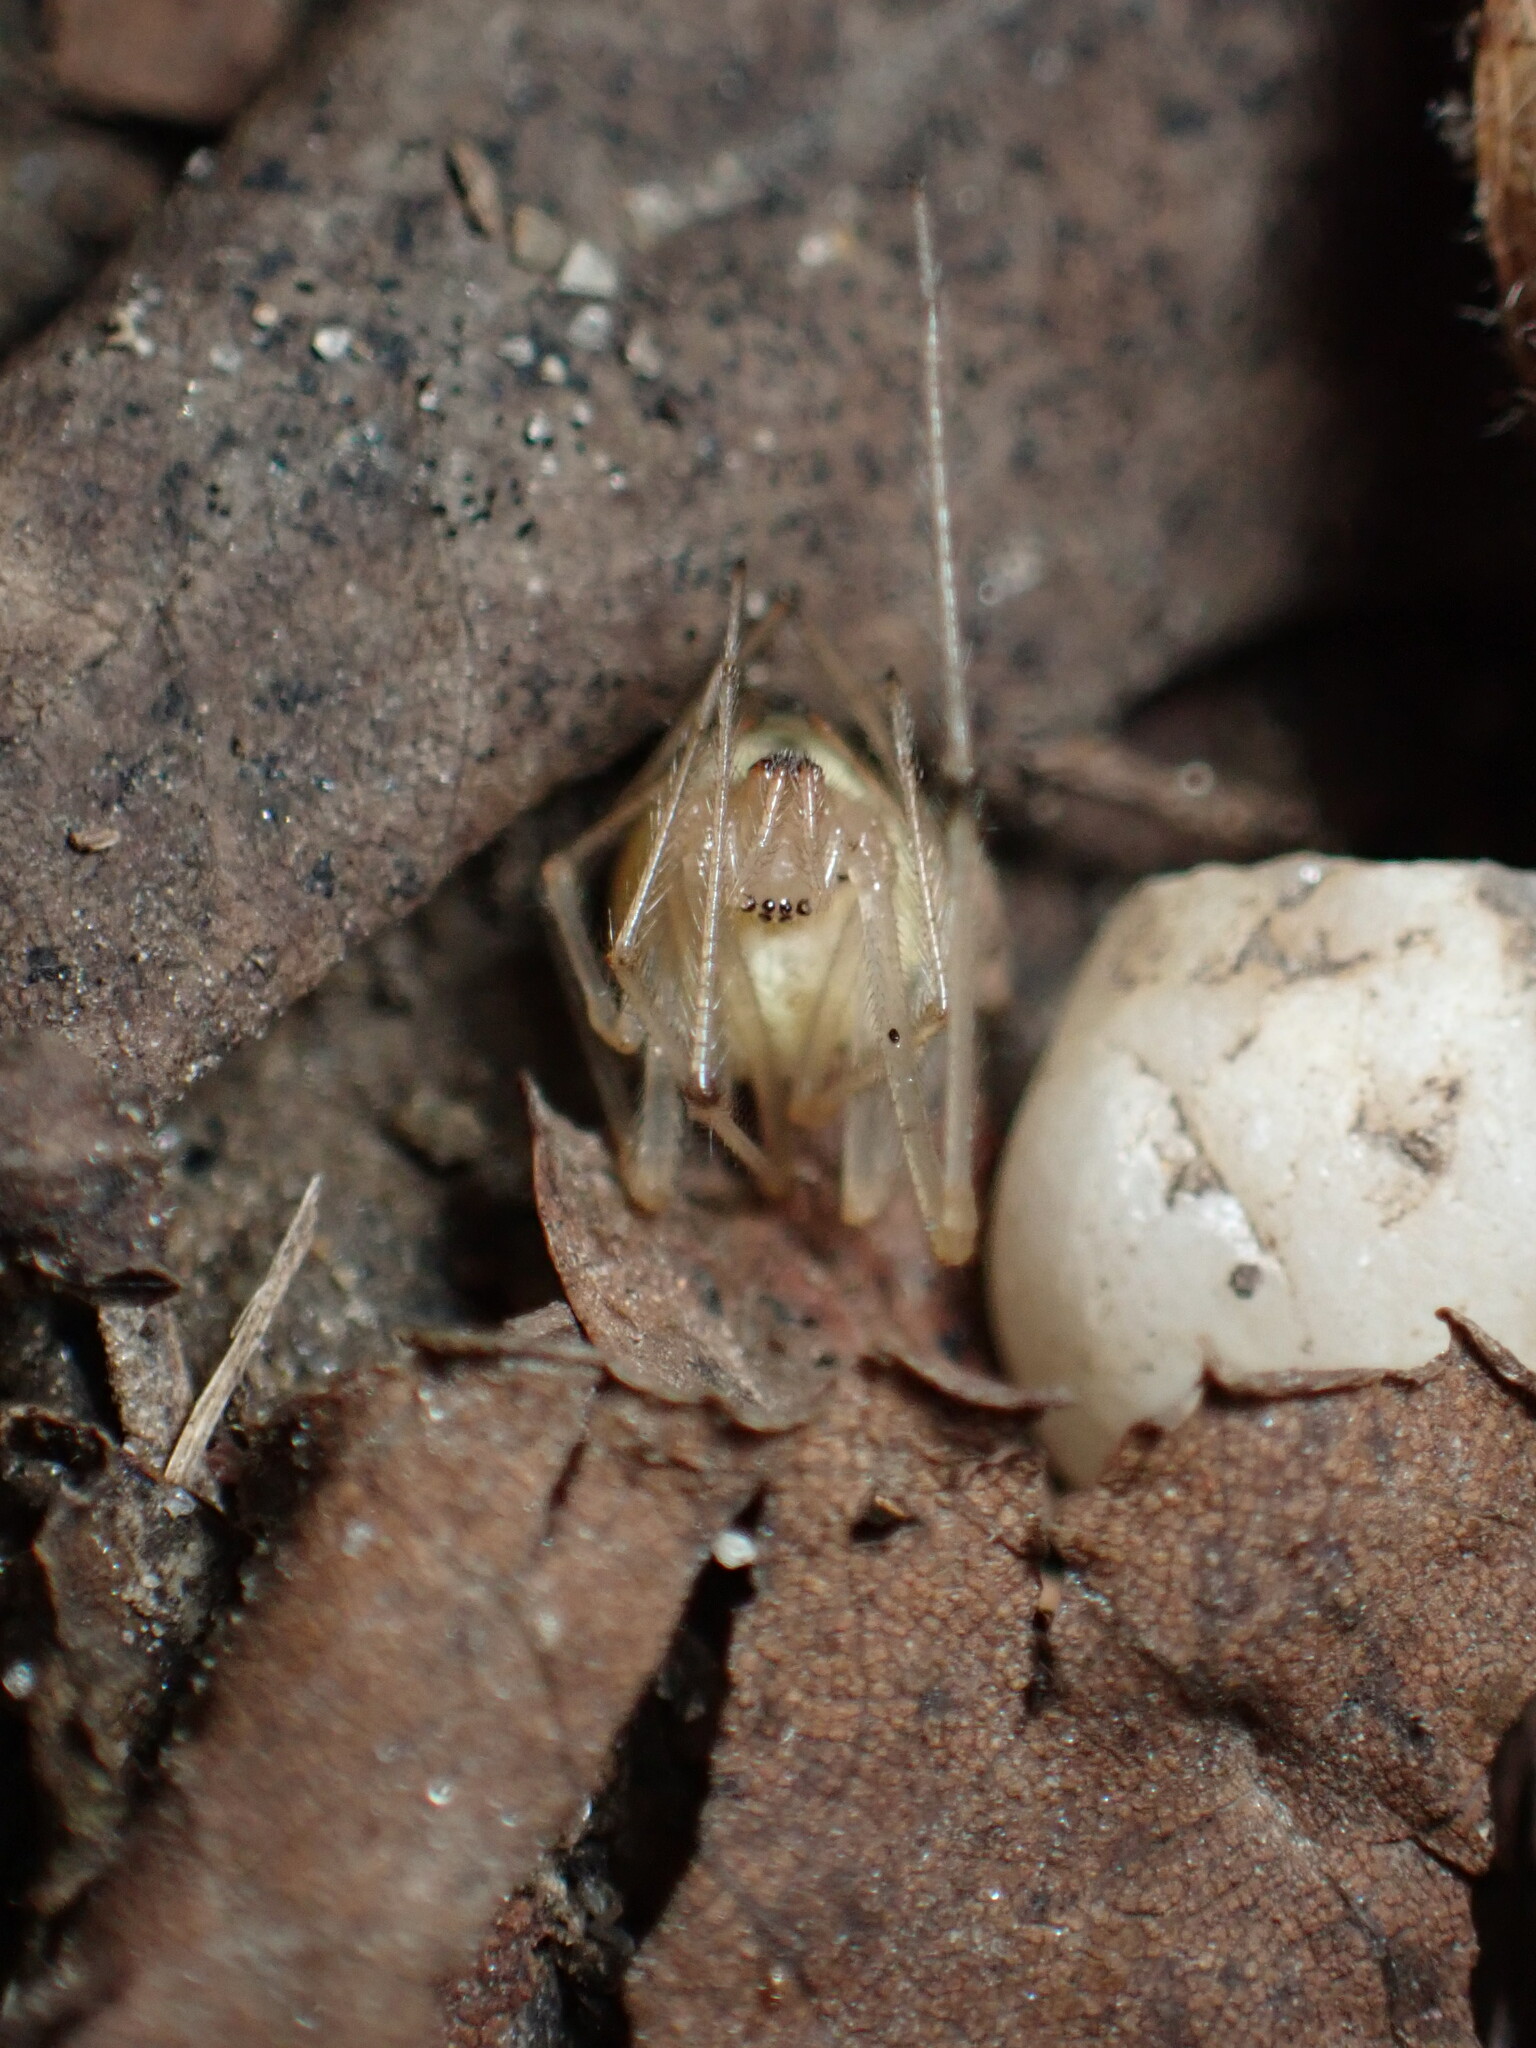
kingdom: Animalia
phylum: Arthropoda
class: Arachnida
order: Araneae
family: Theridiidae
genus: Enoplognatha
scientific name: Enoplognatha
